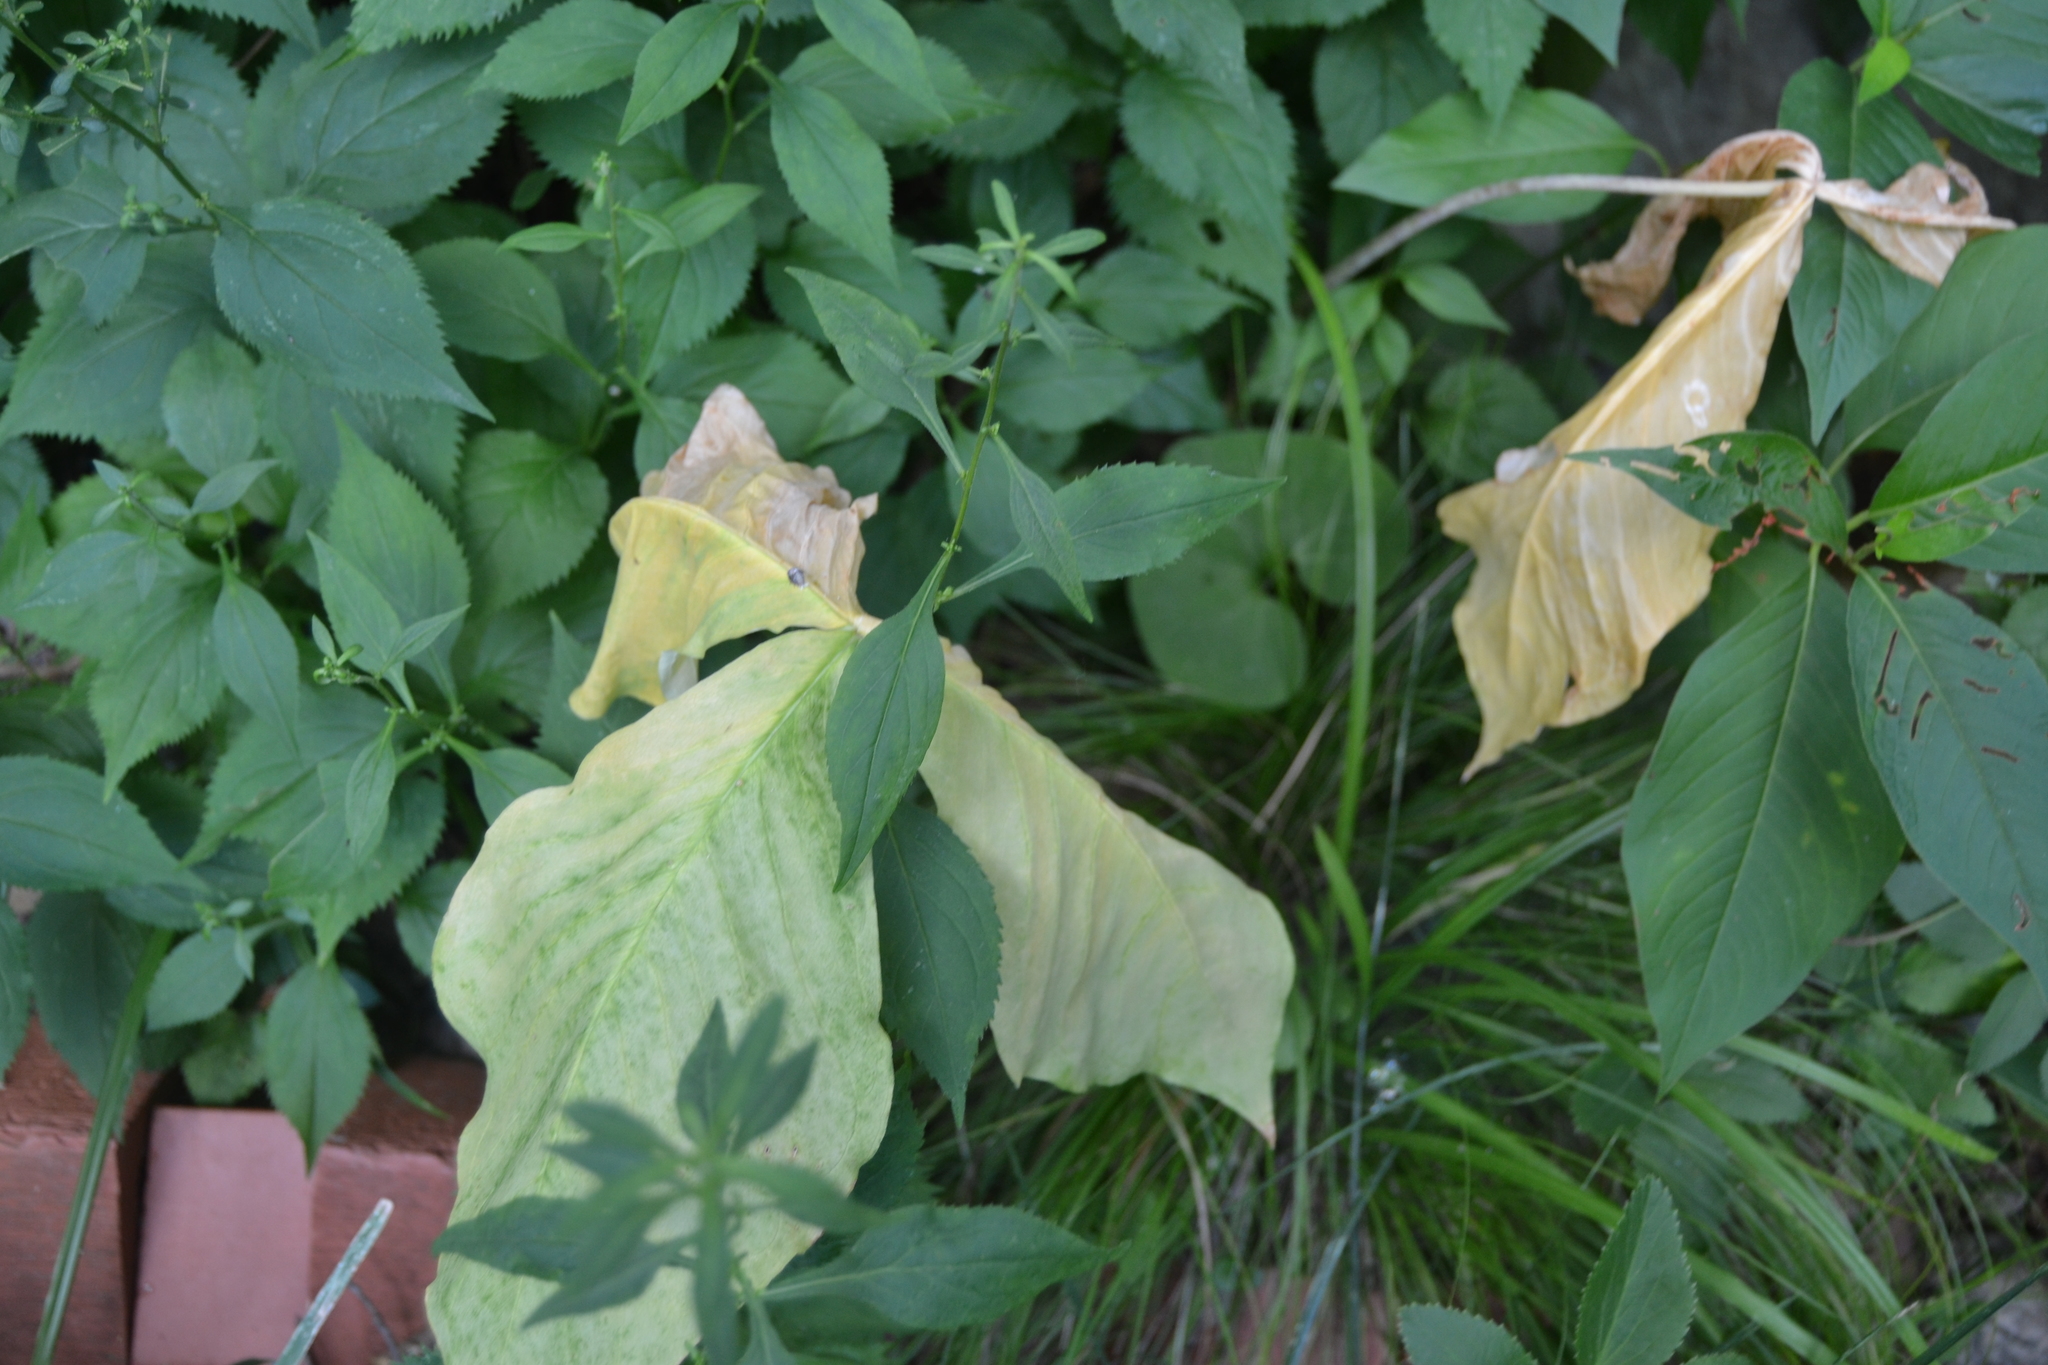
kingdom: Plantae
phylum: Tracheophyta
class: Liliopsida
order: Alismatales
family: Araceae
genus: Arisaema
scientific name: Arisaema triphyllum
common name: Jack-in-the-pulpit
